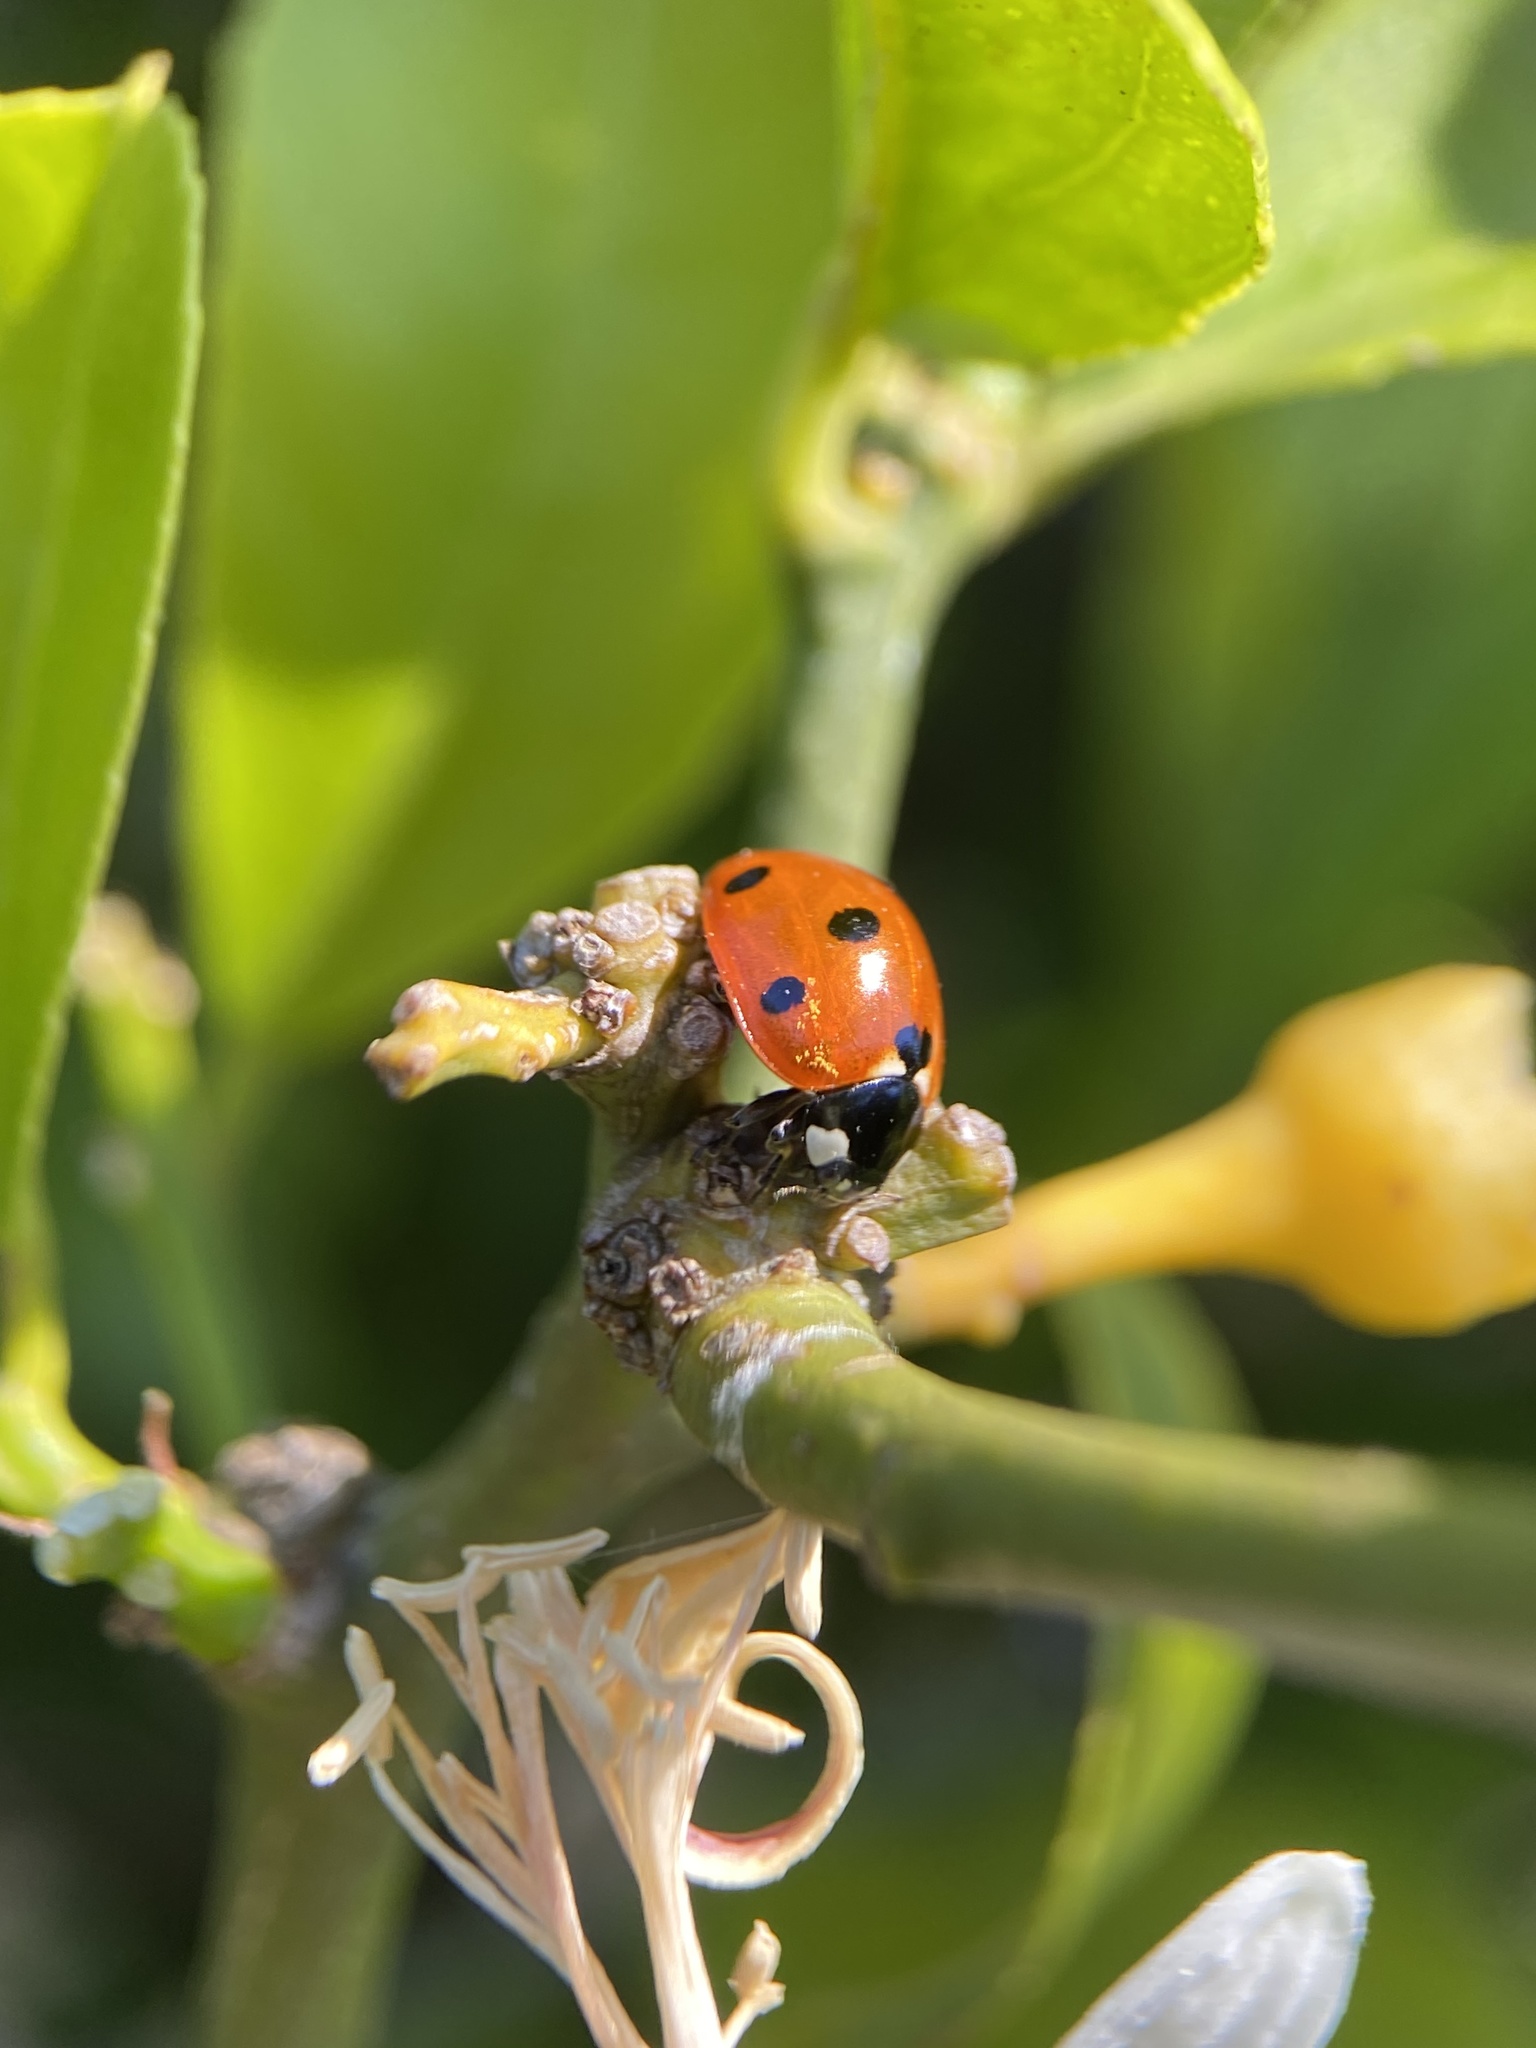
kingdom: Animalia
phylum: Arthropoda
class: Insecta
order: Coleoptera
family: Coccinellidae
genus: Coccinella
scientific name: Coccinella septempunctata
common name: Sevenspotted lady beetle
